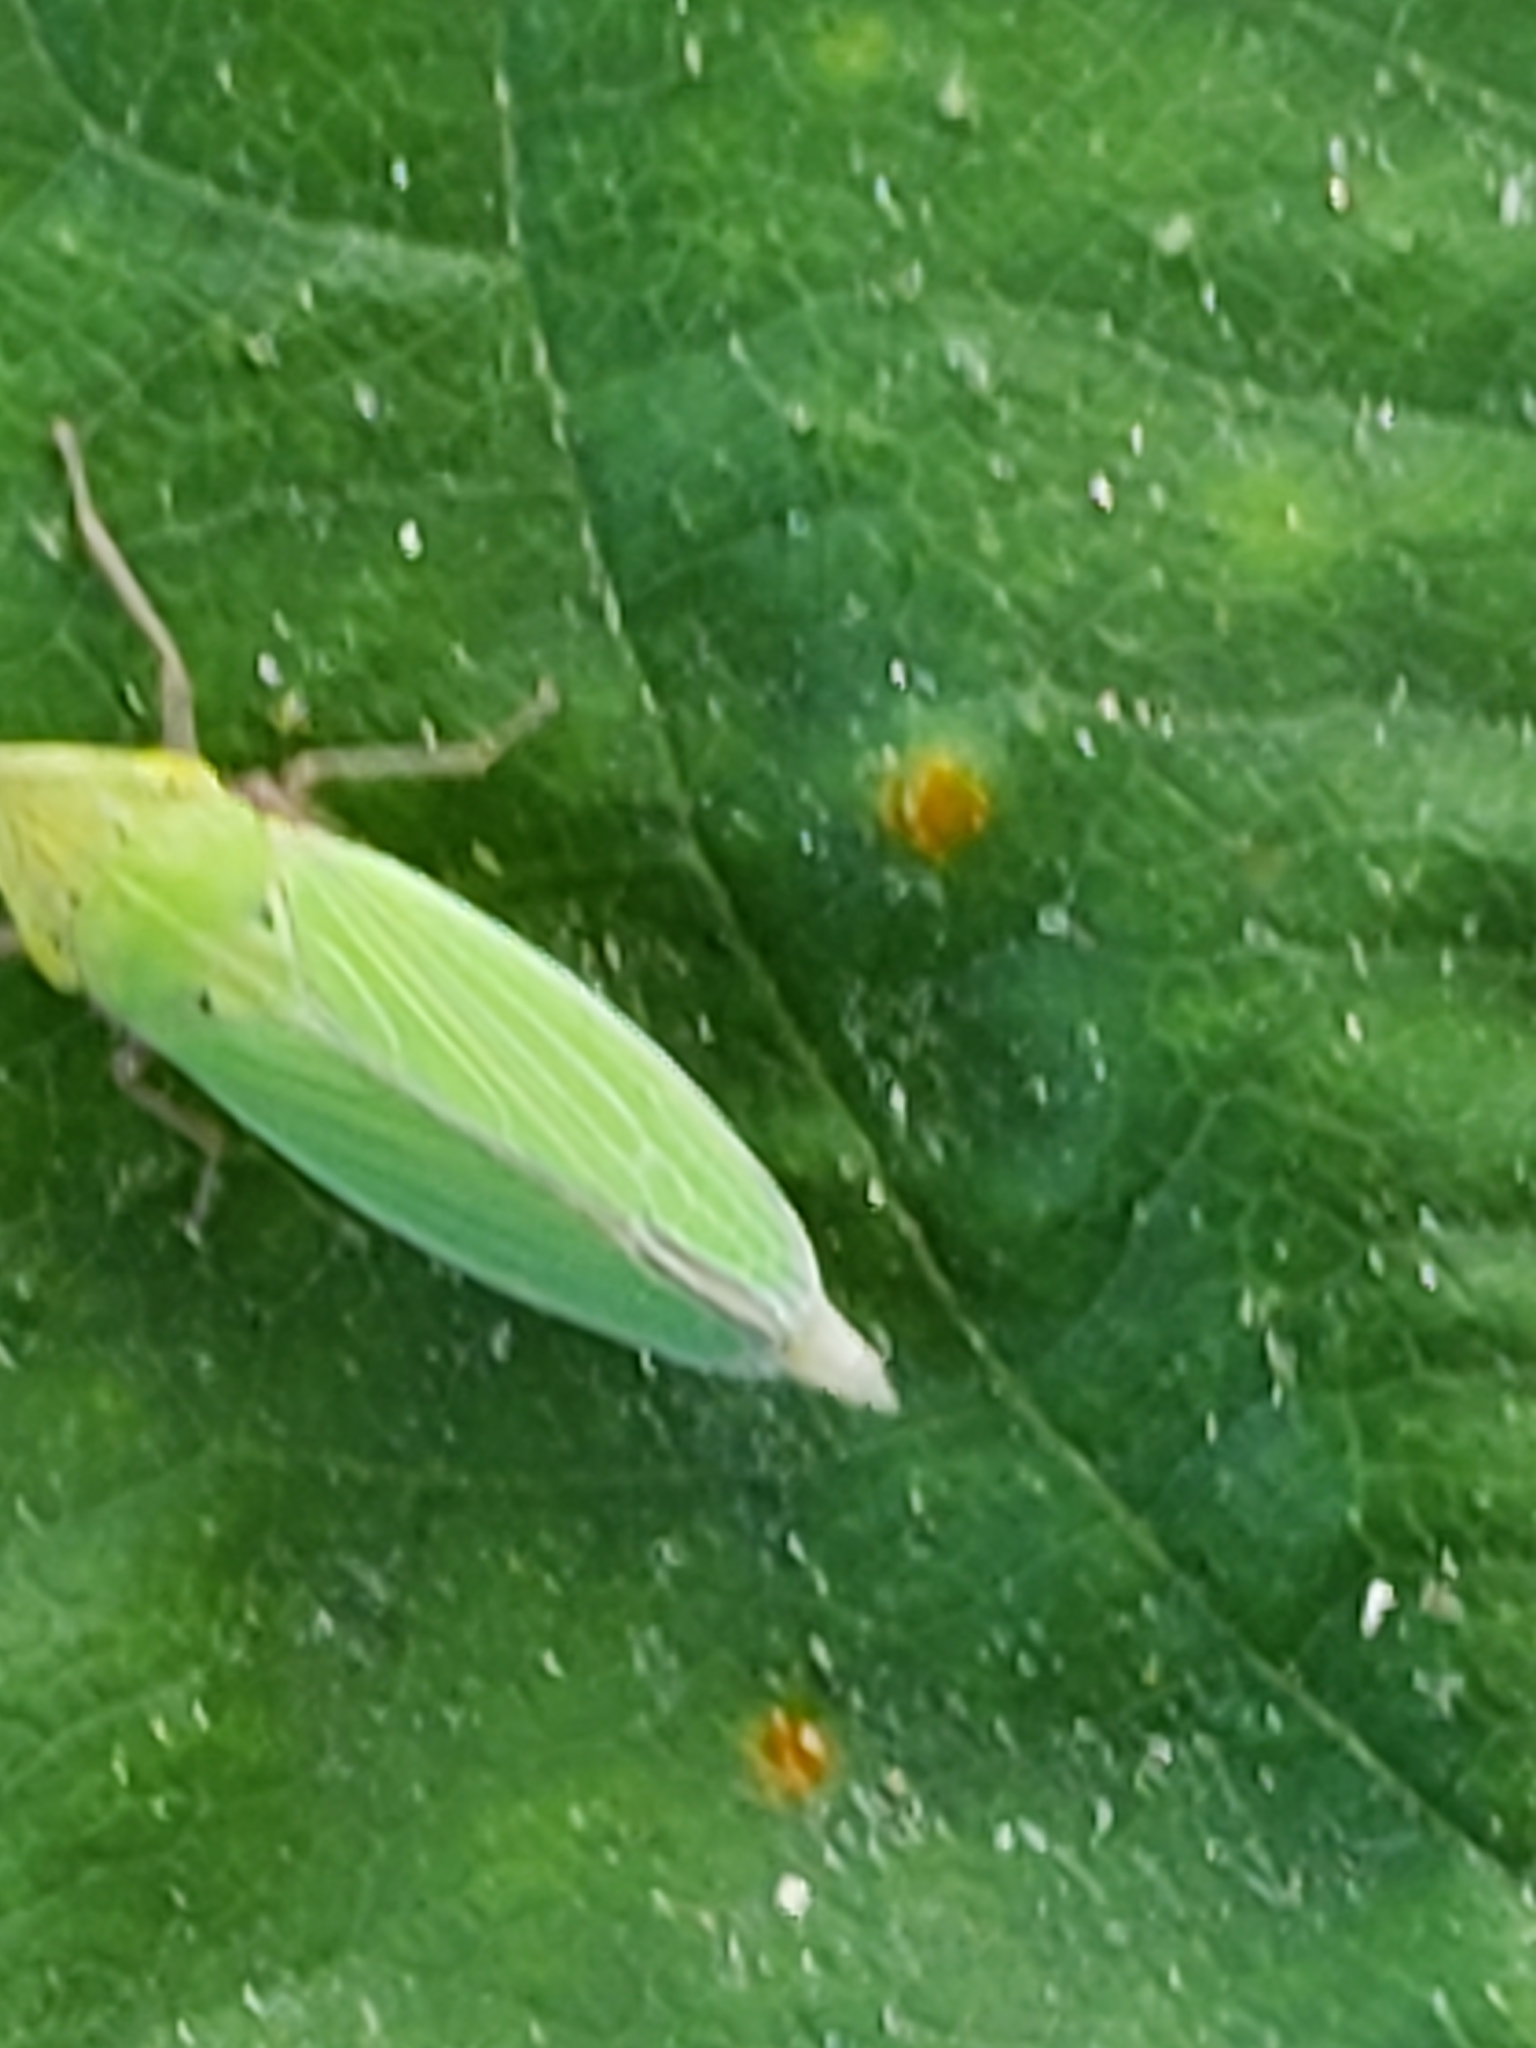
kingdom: Animalia
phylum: Arthropoda
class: Insecta
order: Hemiptera
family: Cicadellidae
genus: Draeculacephala
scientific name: Draeculacephala balli
